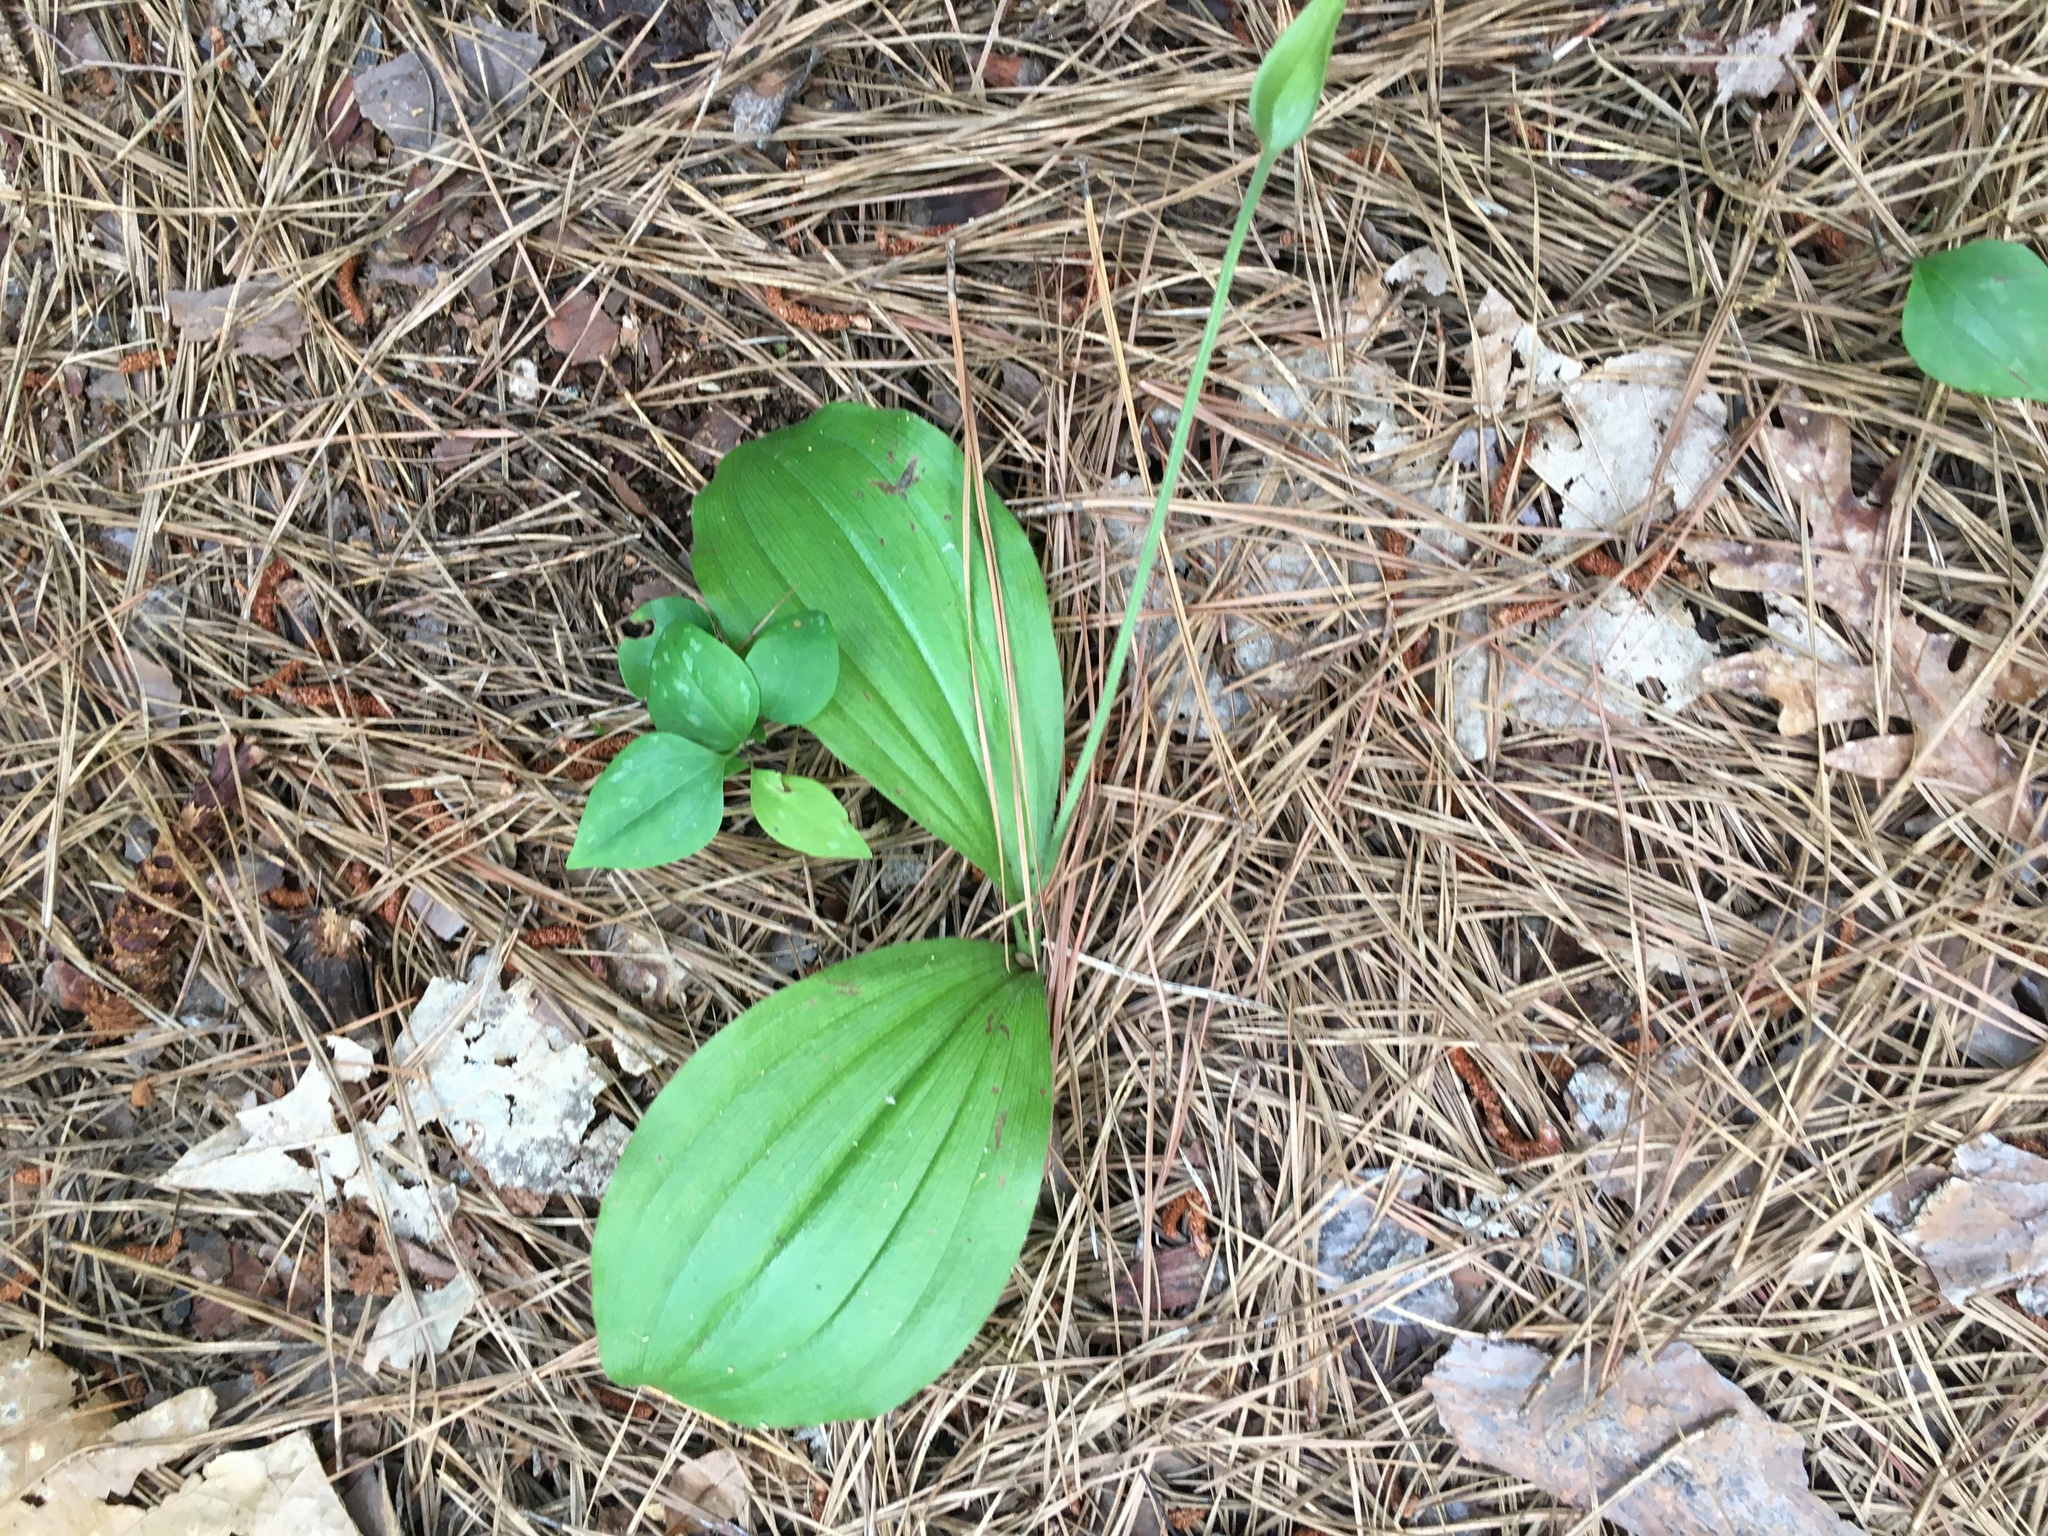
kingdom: Plantae
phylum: Tracheophyta
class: Liliopsida
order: Asparagales
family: Orchidaceae
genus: Cypripedium
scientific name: Cypripedium acaule
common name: Pink lady's-slipper
